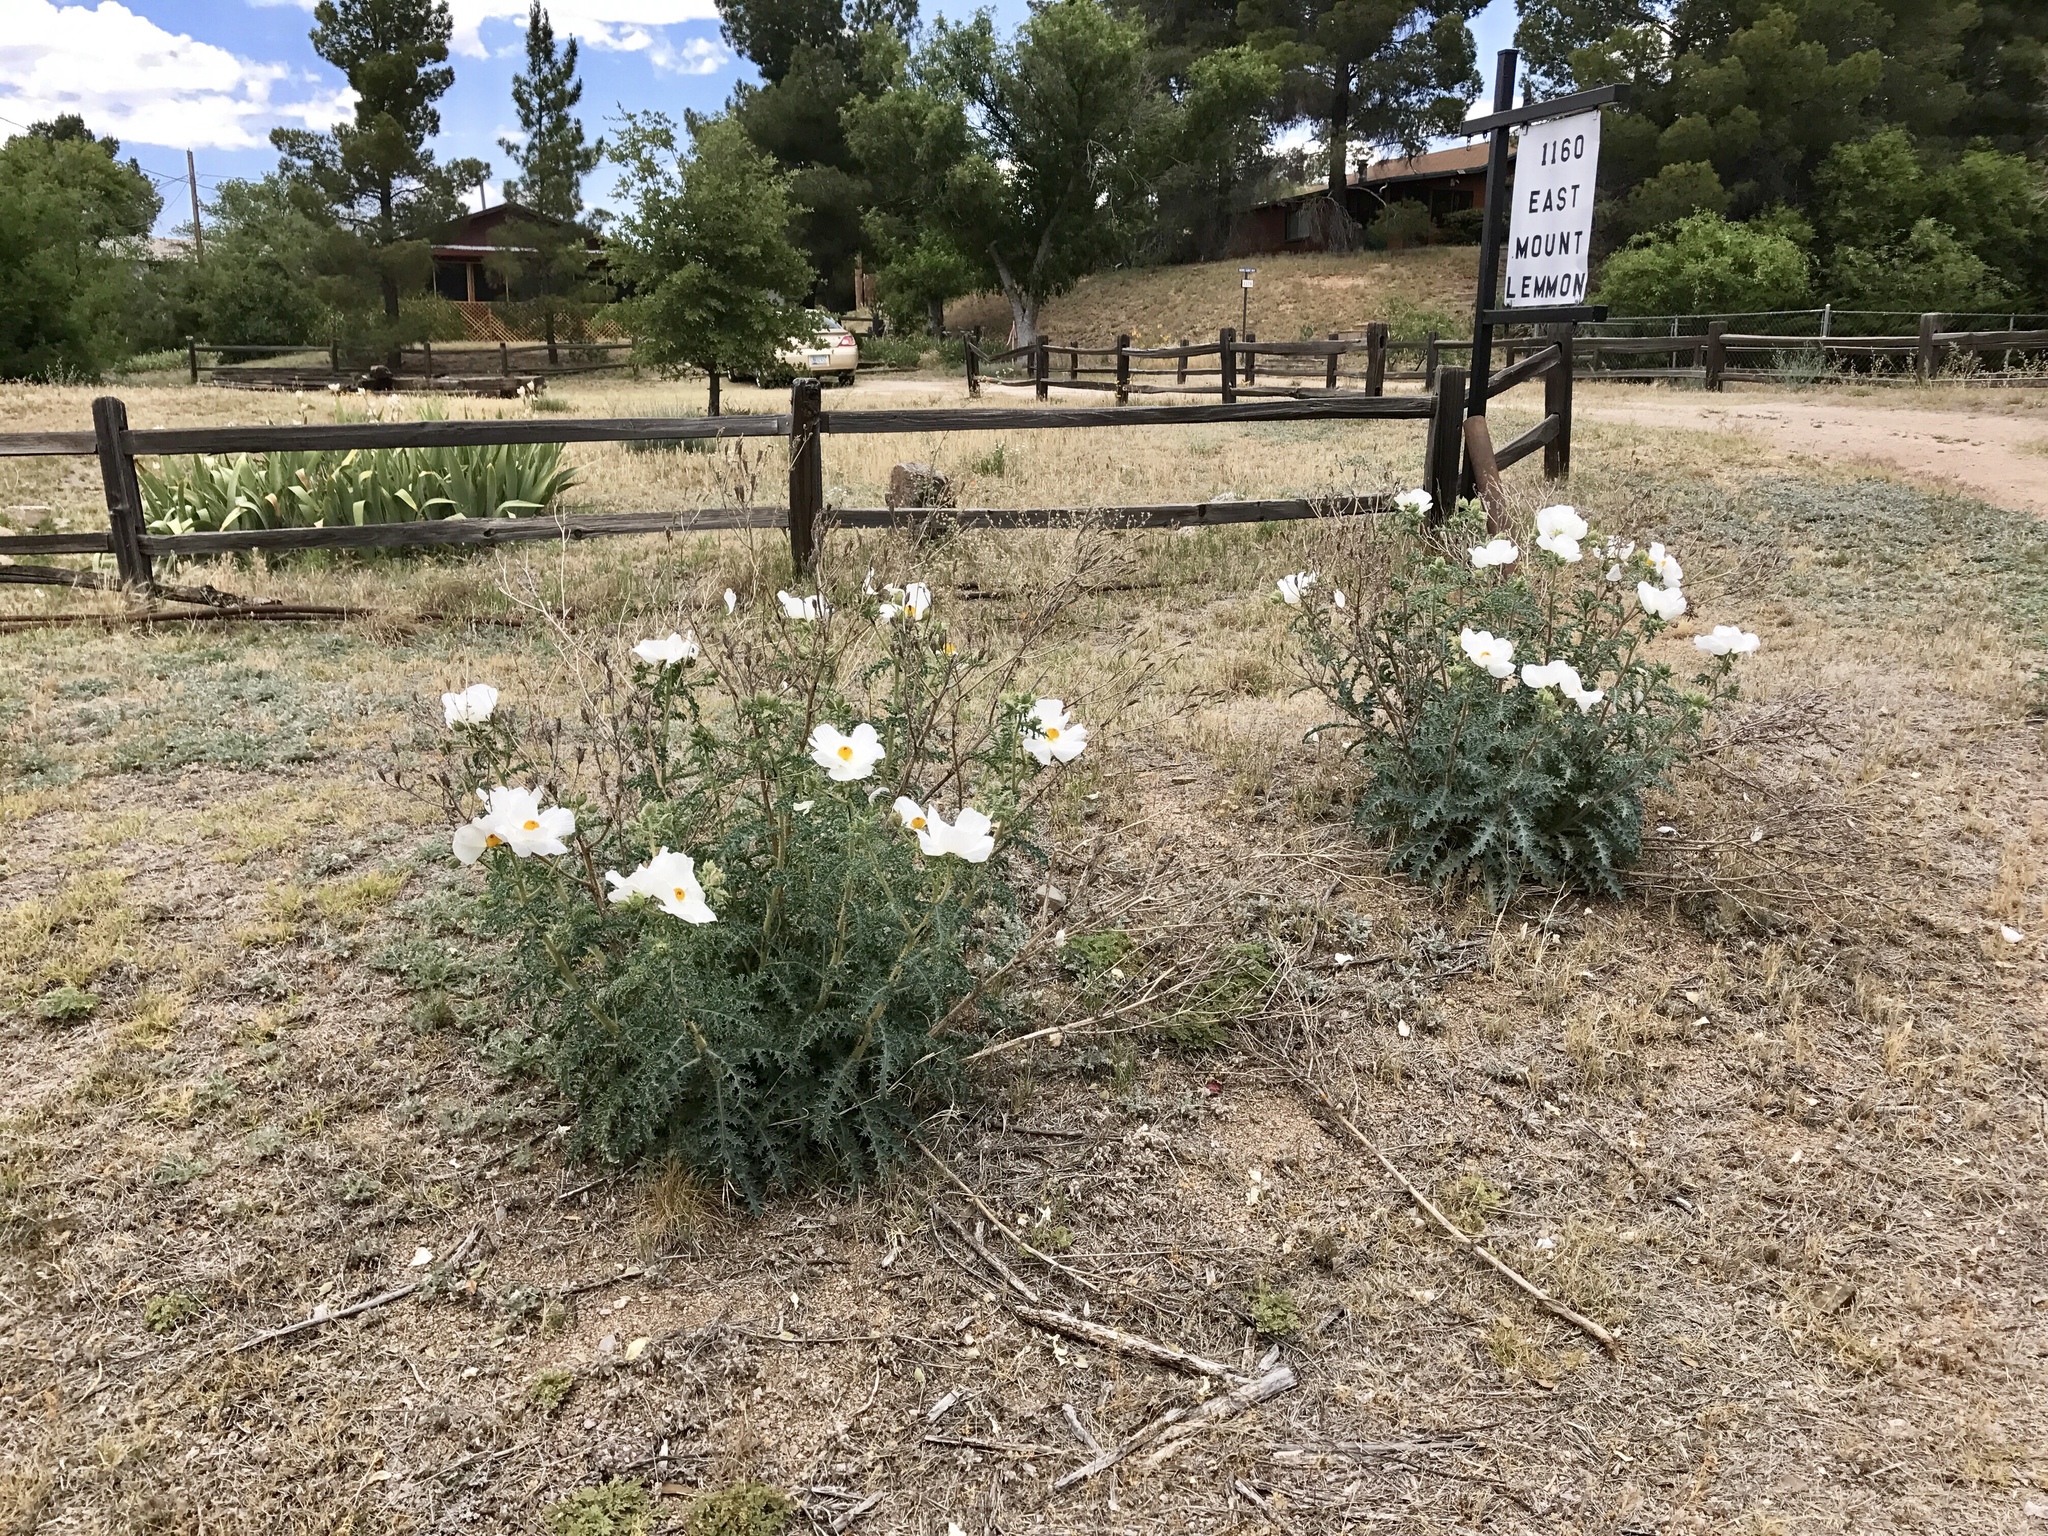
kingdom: Plantae
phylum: Tracheophyta
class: Magnoliopsida
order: Ranunculales
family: Papaveraceae
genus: Argemone
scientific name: Argemone pleiacantha
